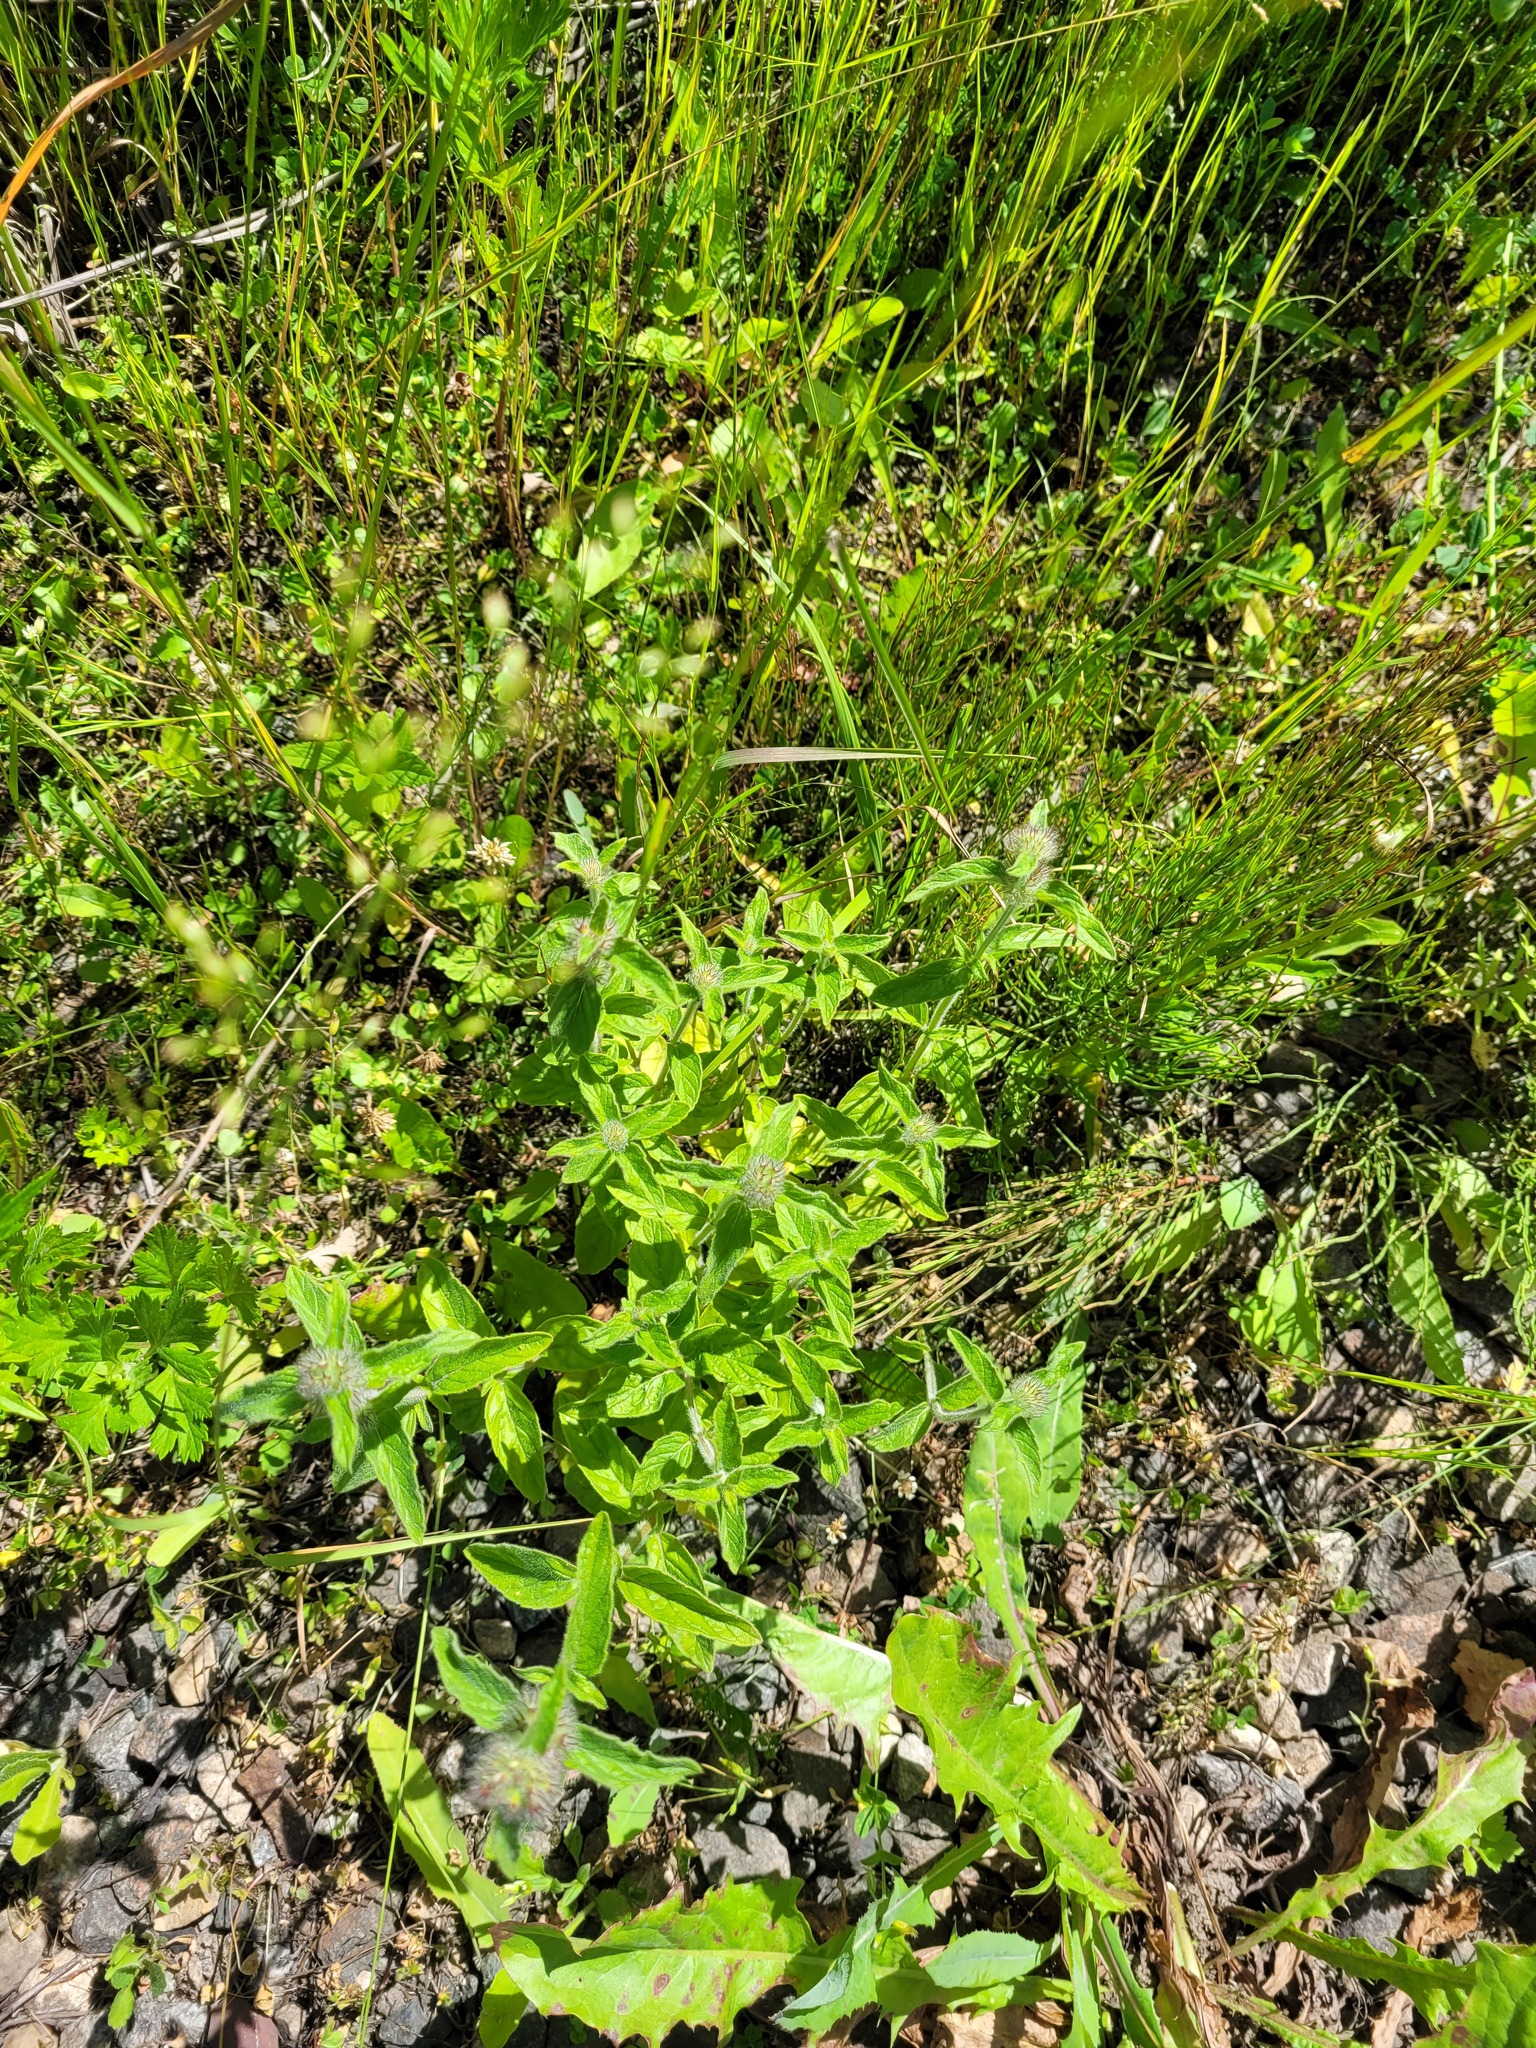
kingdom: Plantae
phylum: Tracheophyta
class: Magnoliopsida
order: Lamiales
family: Lamiaceae
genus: Clinopodium
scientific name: Clinopodium vulgare
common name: Wild basil
